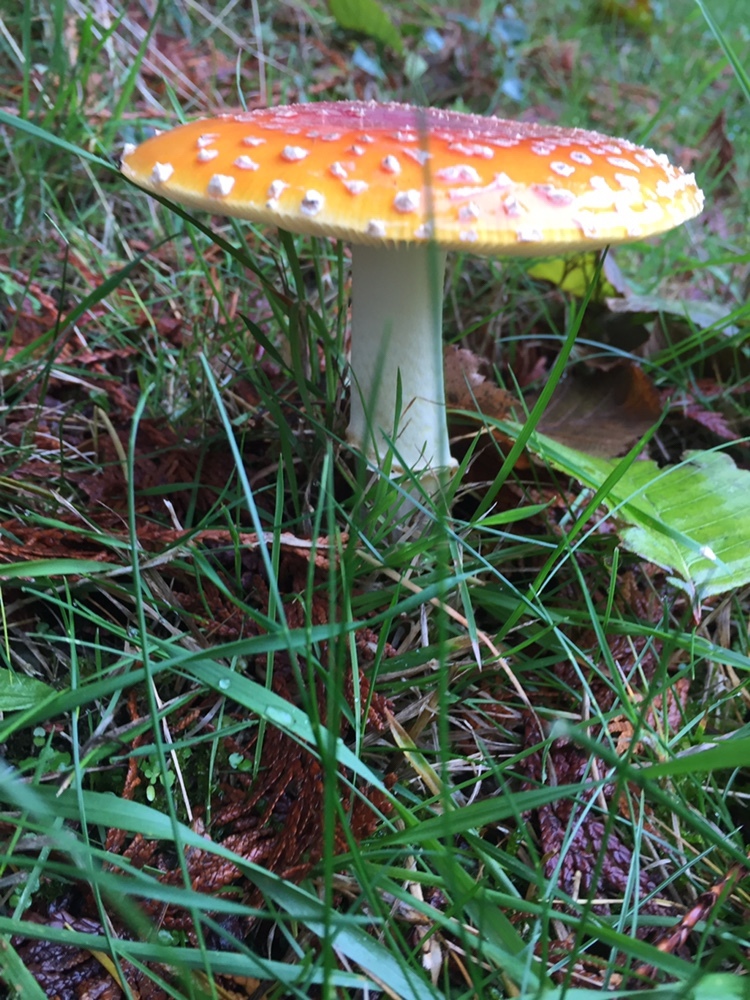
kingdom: Fungi
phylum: Basidiomycota
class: Agaricomycetes
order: Agaricales
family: Amanitaceae
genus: Amanita
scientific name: Amanita muscaria
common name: Fly agaric
